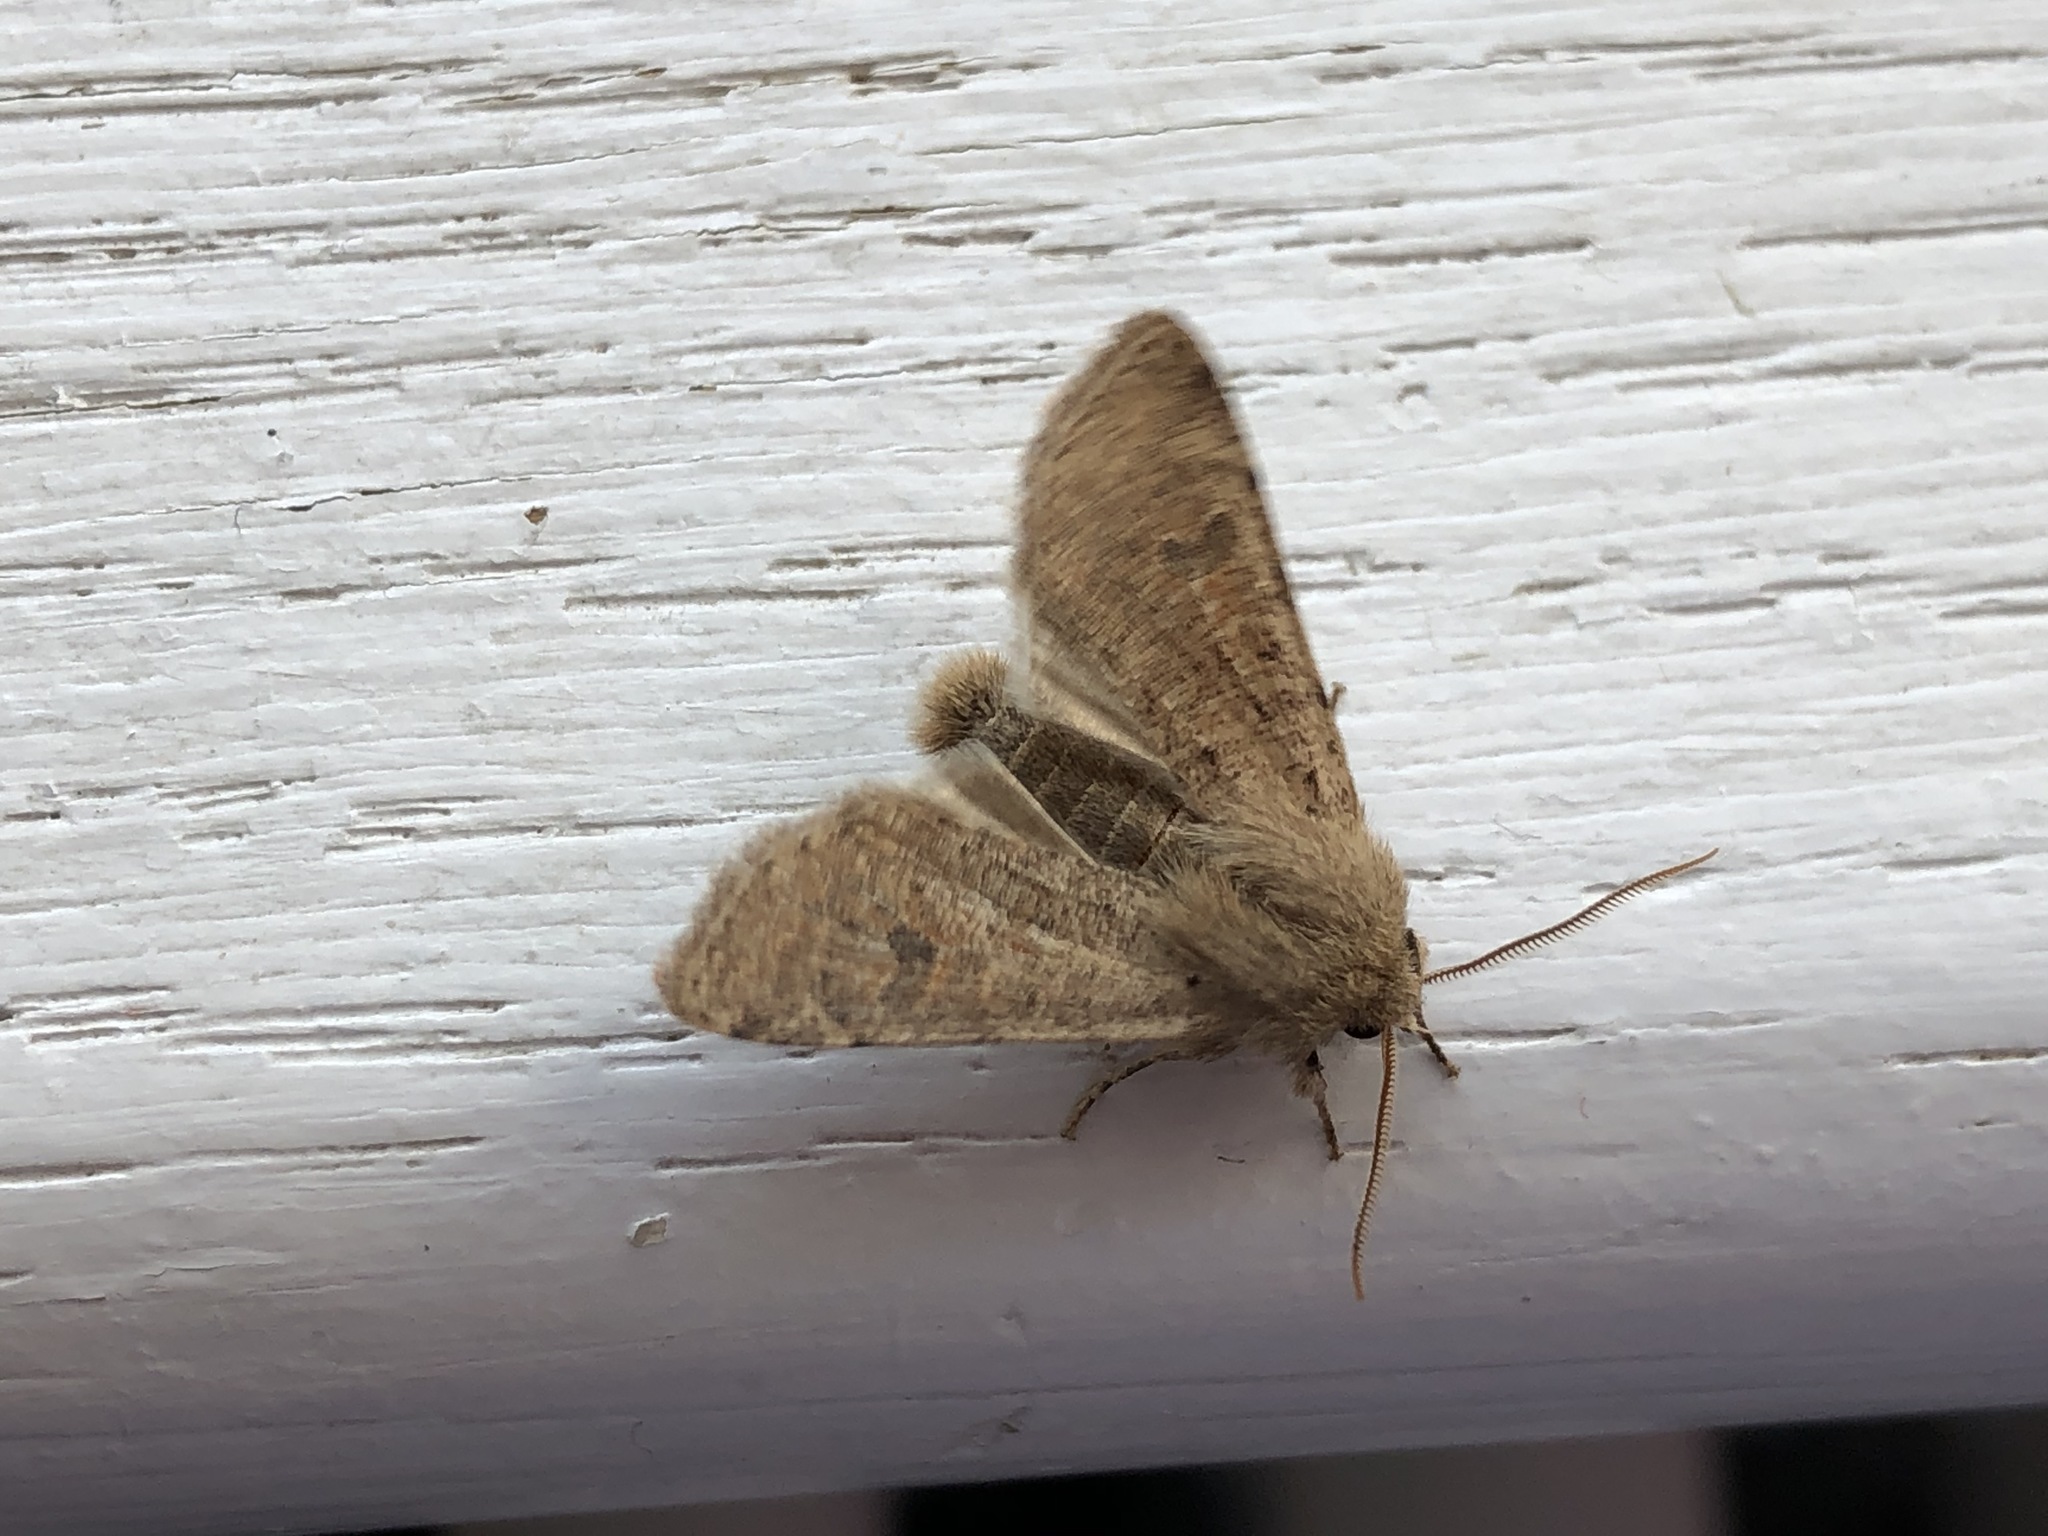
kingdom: Animalia
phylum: Arthropoda
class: Insecta
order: Lepidoptera
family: Noctuidae
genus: Orthosia
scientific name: Orthosia cruda
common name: Small quaker
